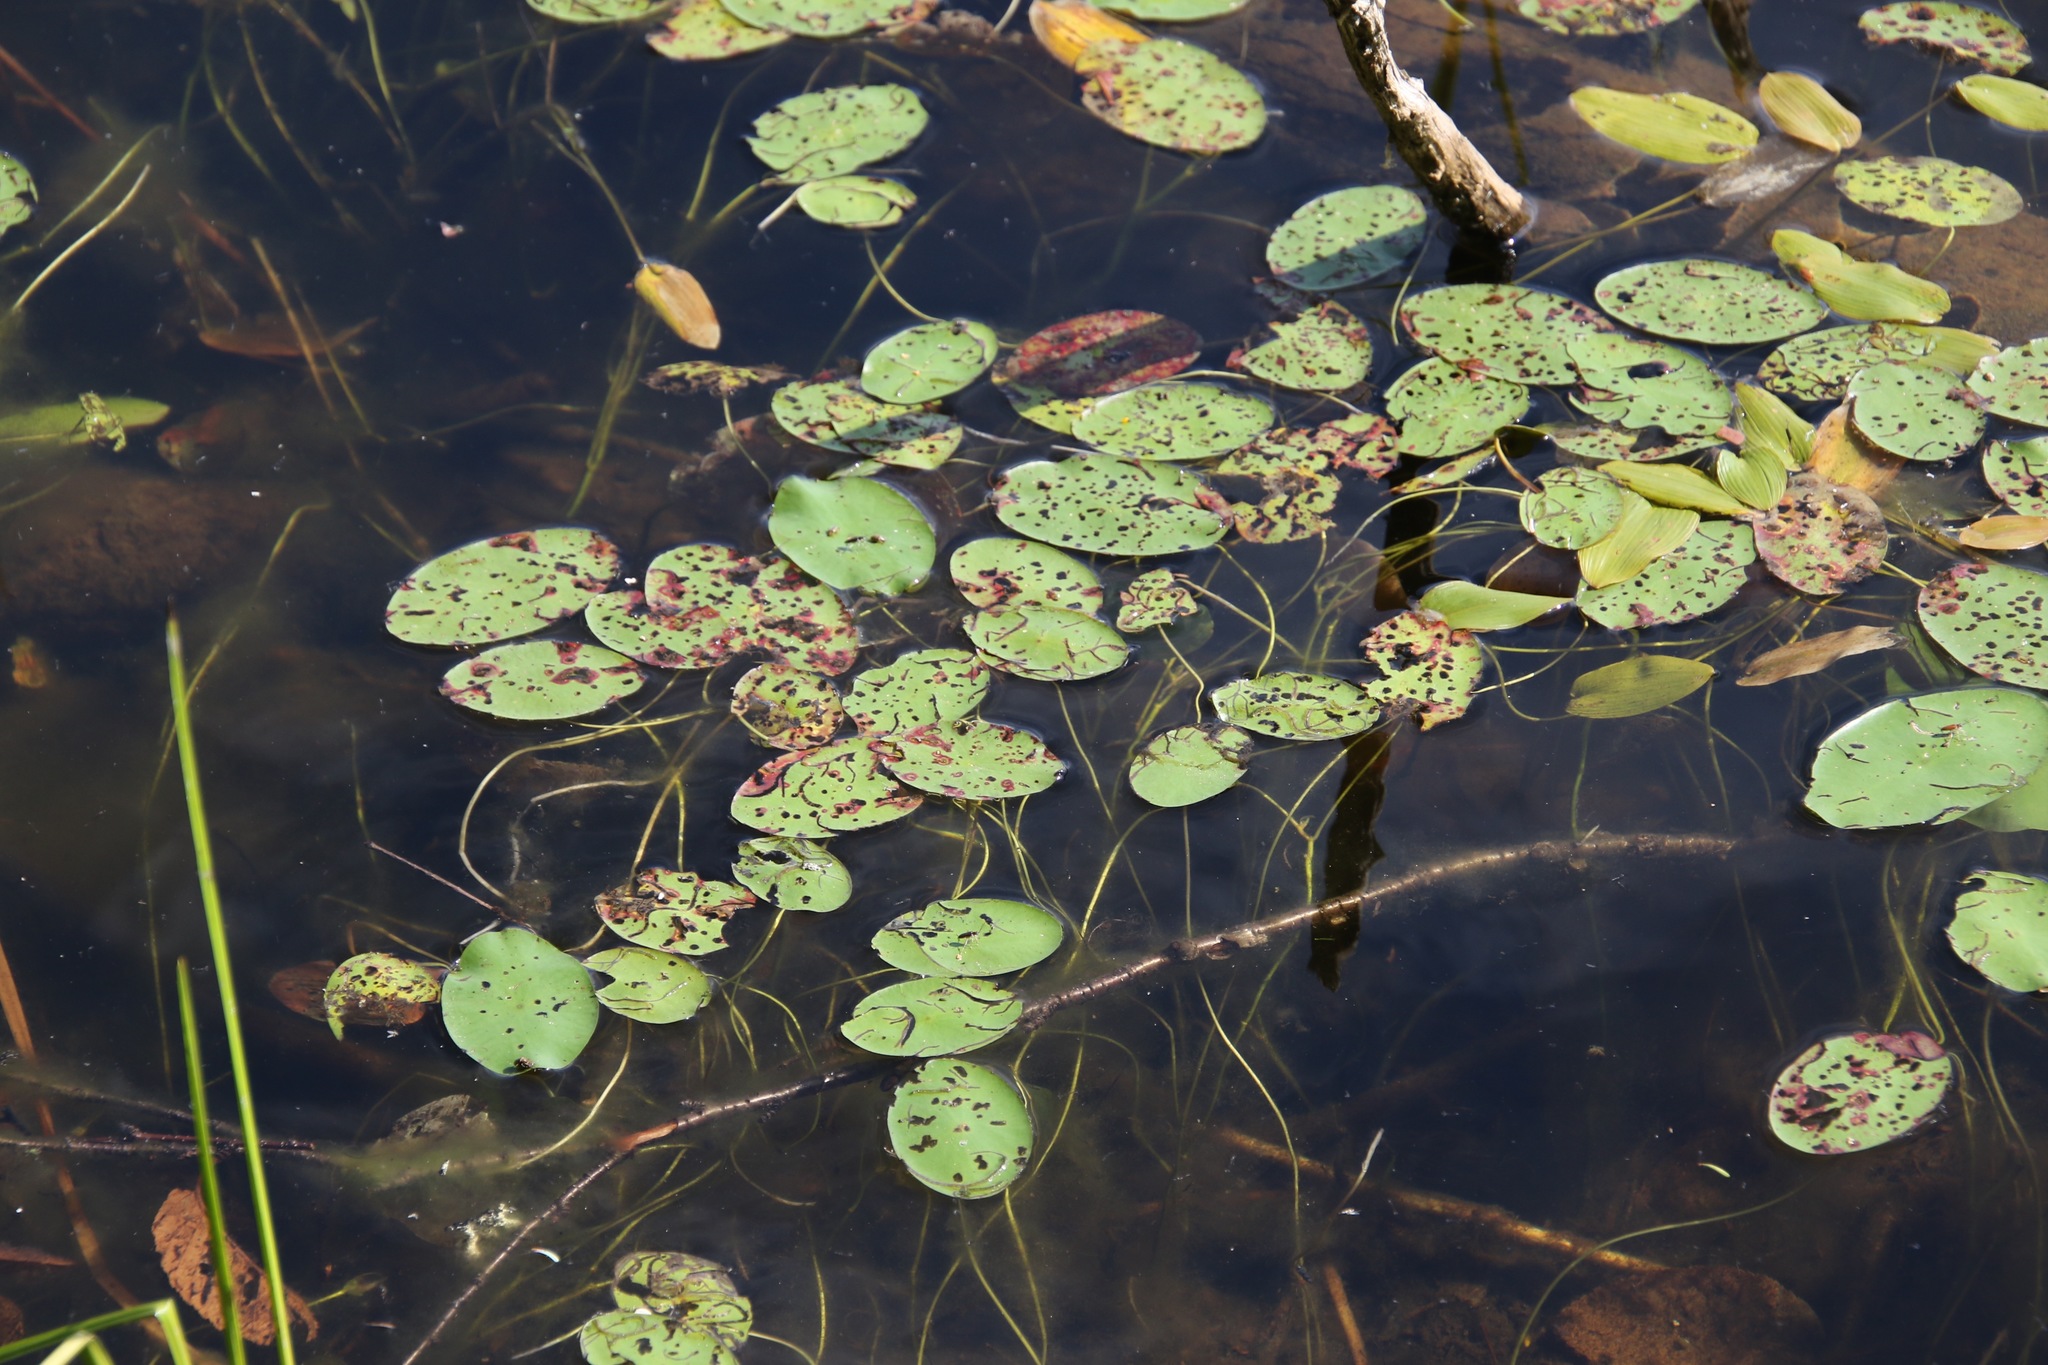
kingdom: Plantae
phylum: Tracheophyta
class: Magnoliopsida
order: Nymphaeales
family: Cabombaceae
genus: Brasenia
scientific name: Brasenia schreberi
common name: Water-shield
